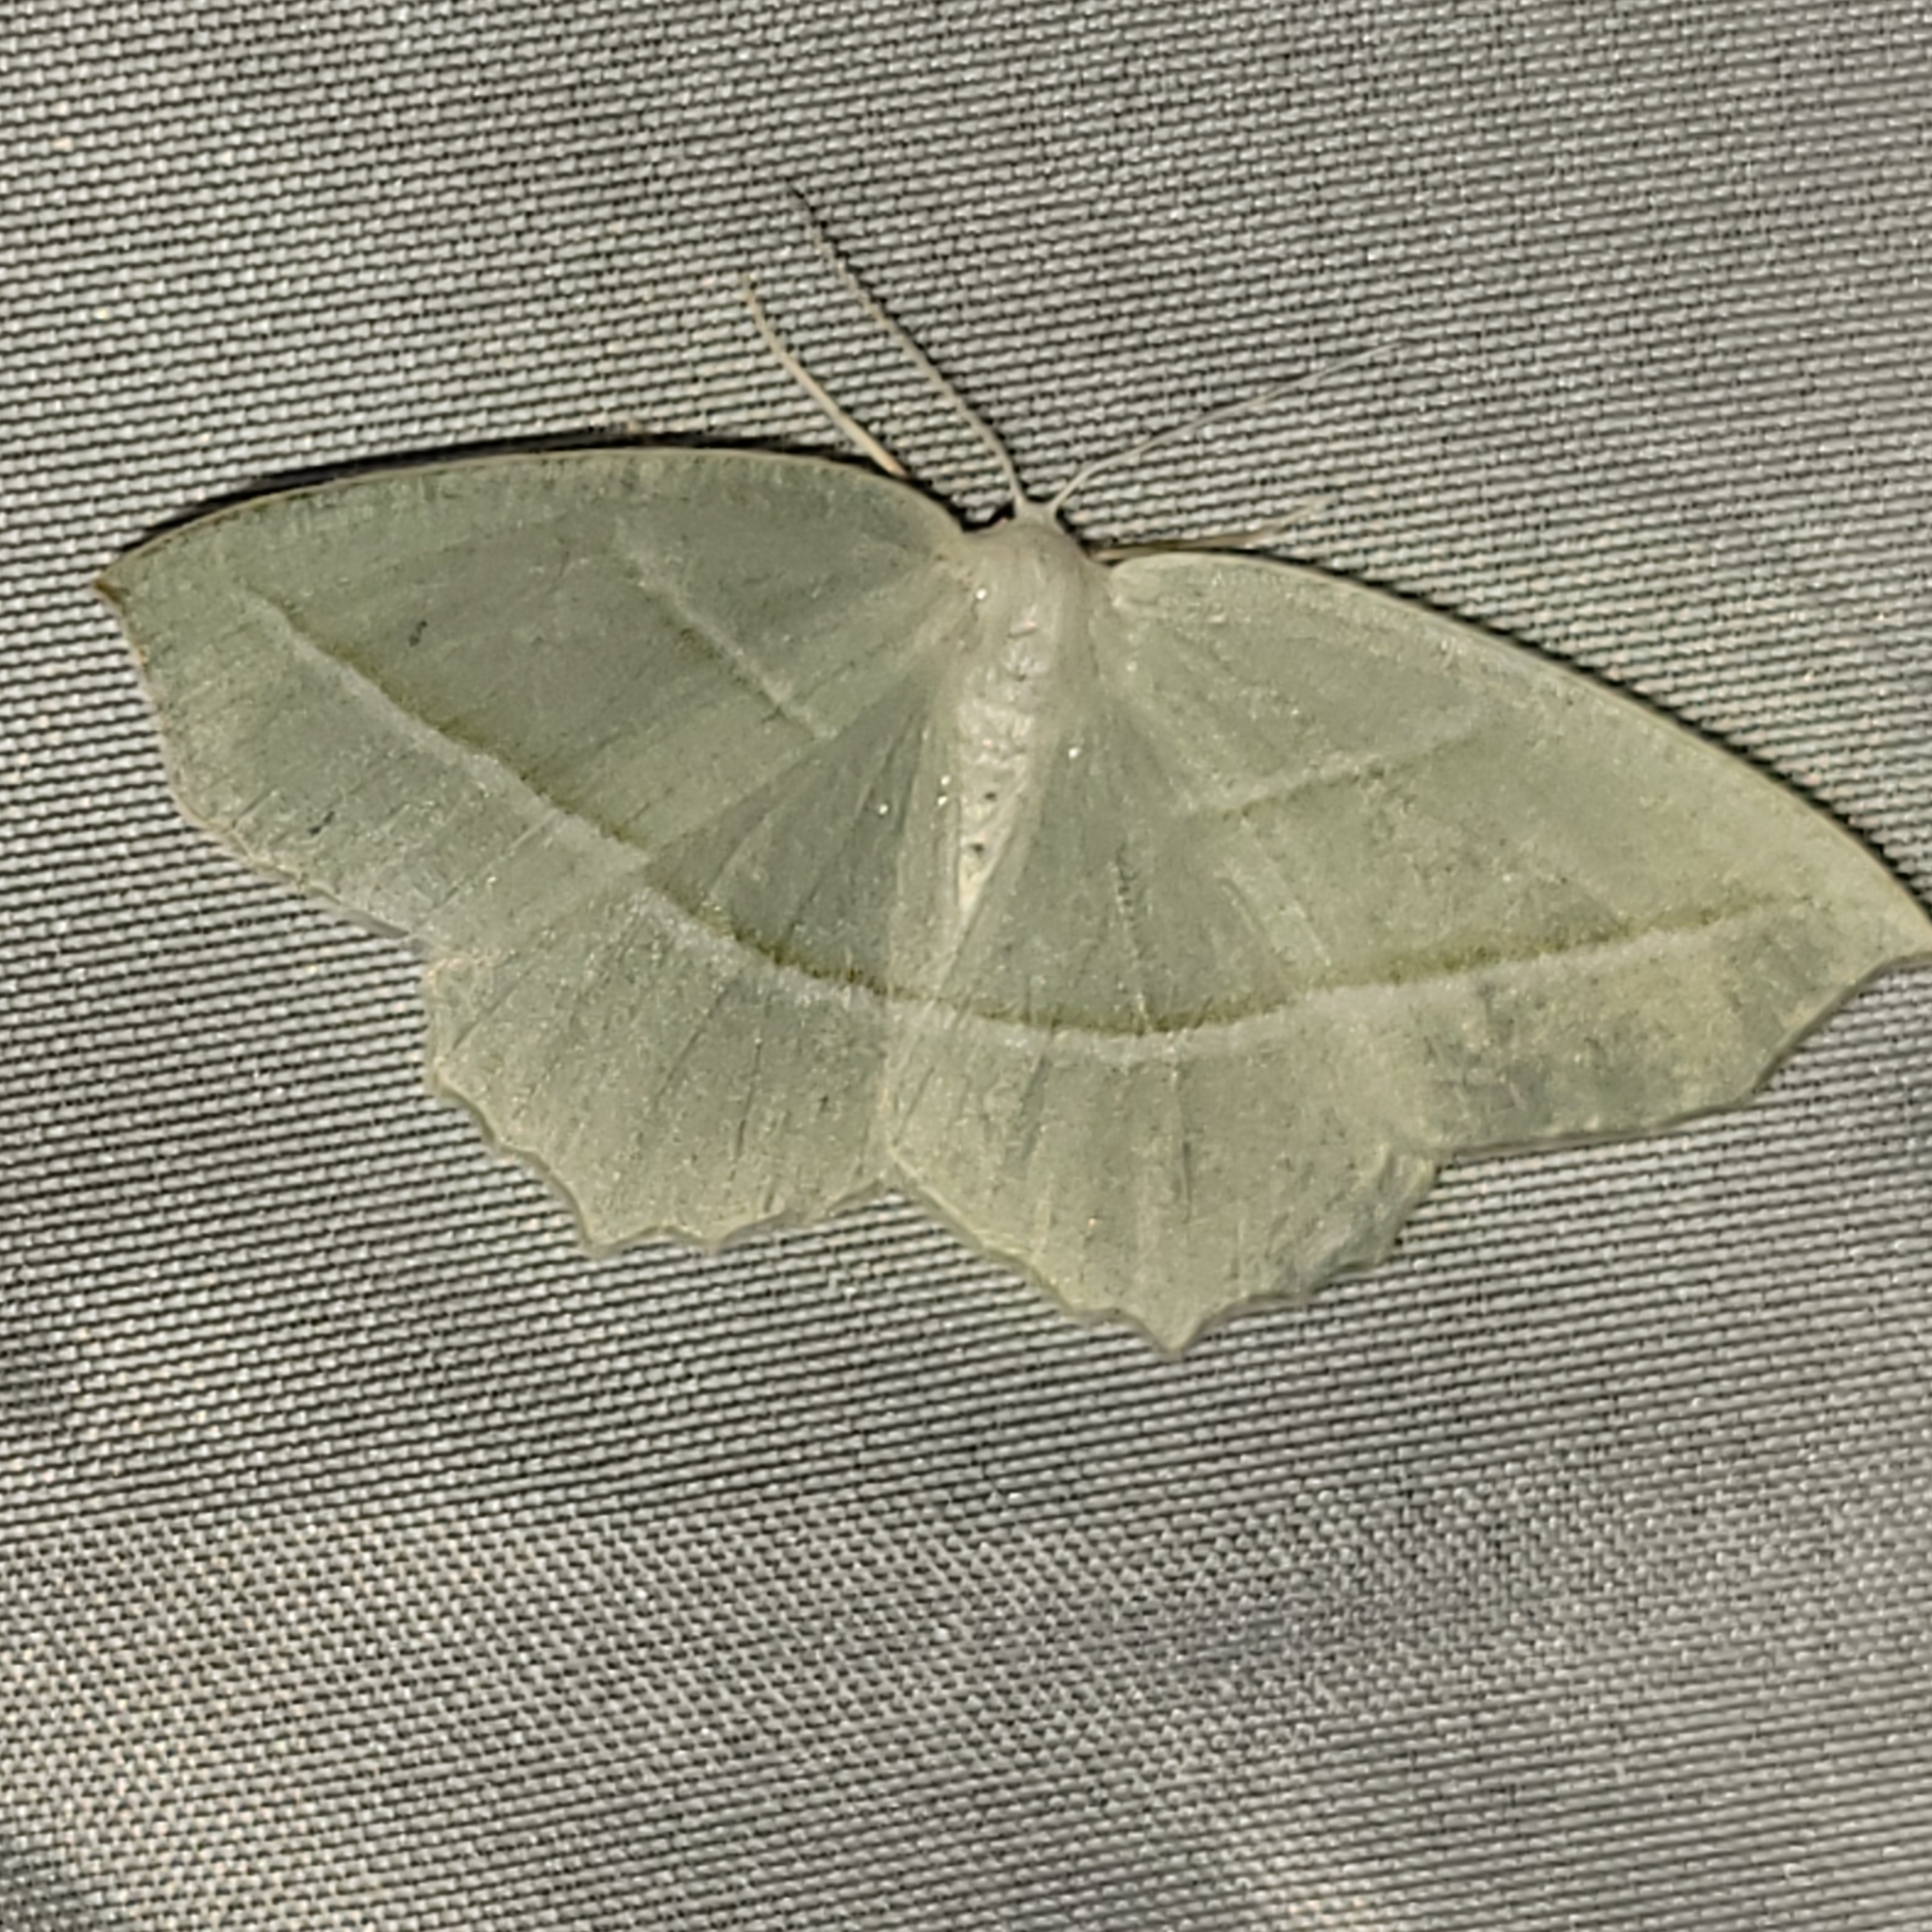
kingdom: Animalia
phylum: Arthropoda
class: Insecta
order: Lepidoptera
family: Geometridae
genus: Campaea
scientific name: Campaea perlata
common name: Fringed looper
